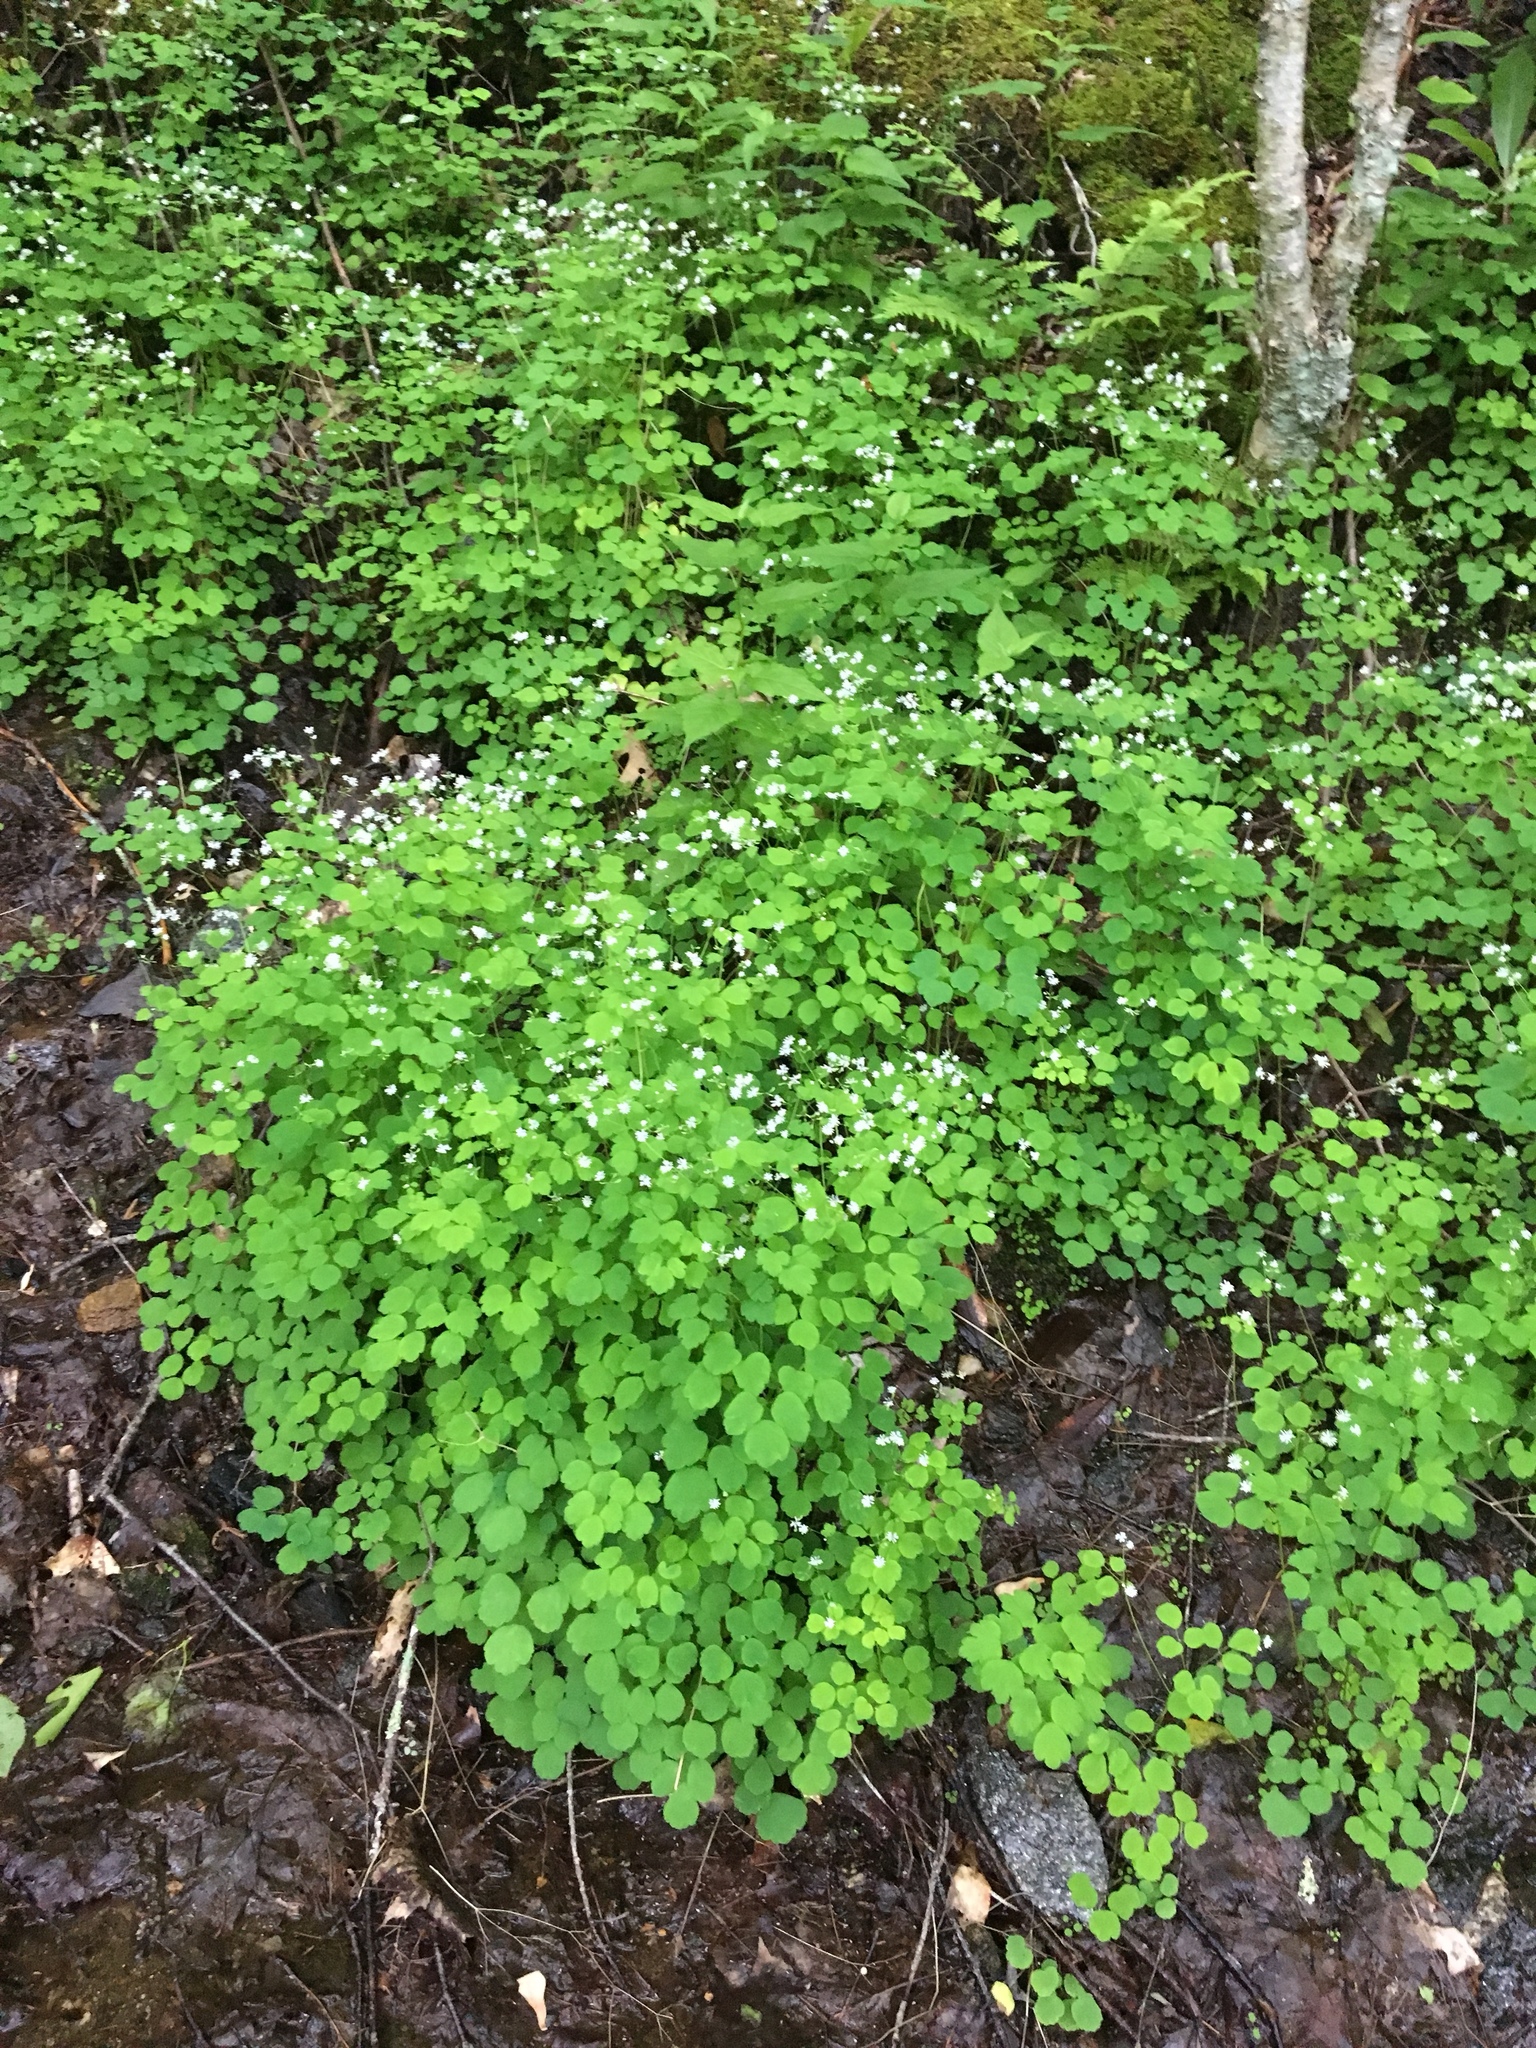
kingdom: Plantae
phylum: Tracheophyta
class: Magnoliopsida
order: Ranunculales
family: Ranunculaceae
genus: Thalictrum
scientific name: Thalictrum clavatum
